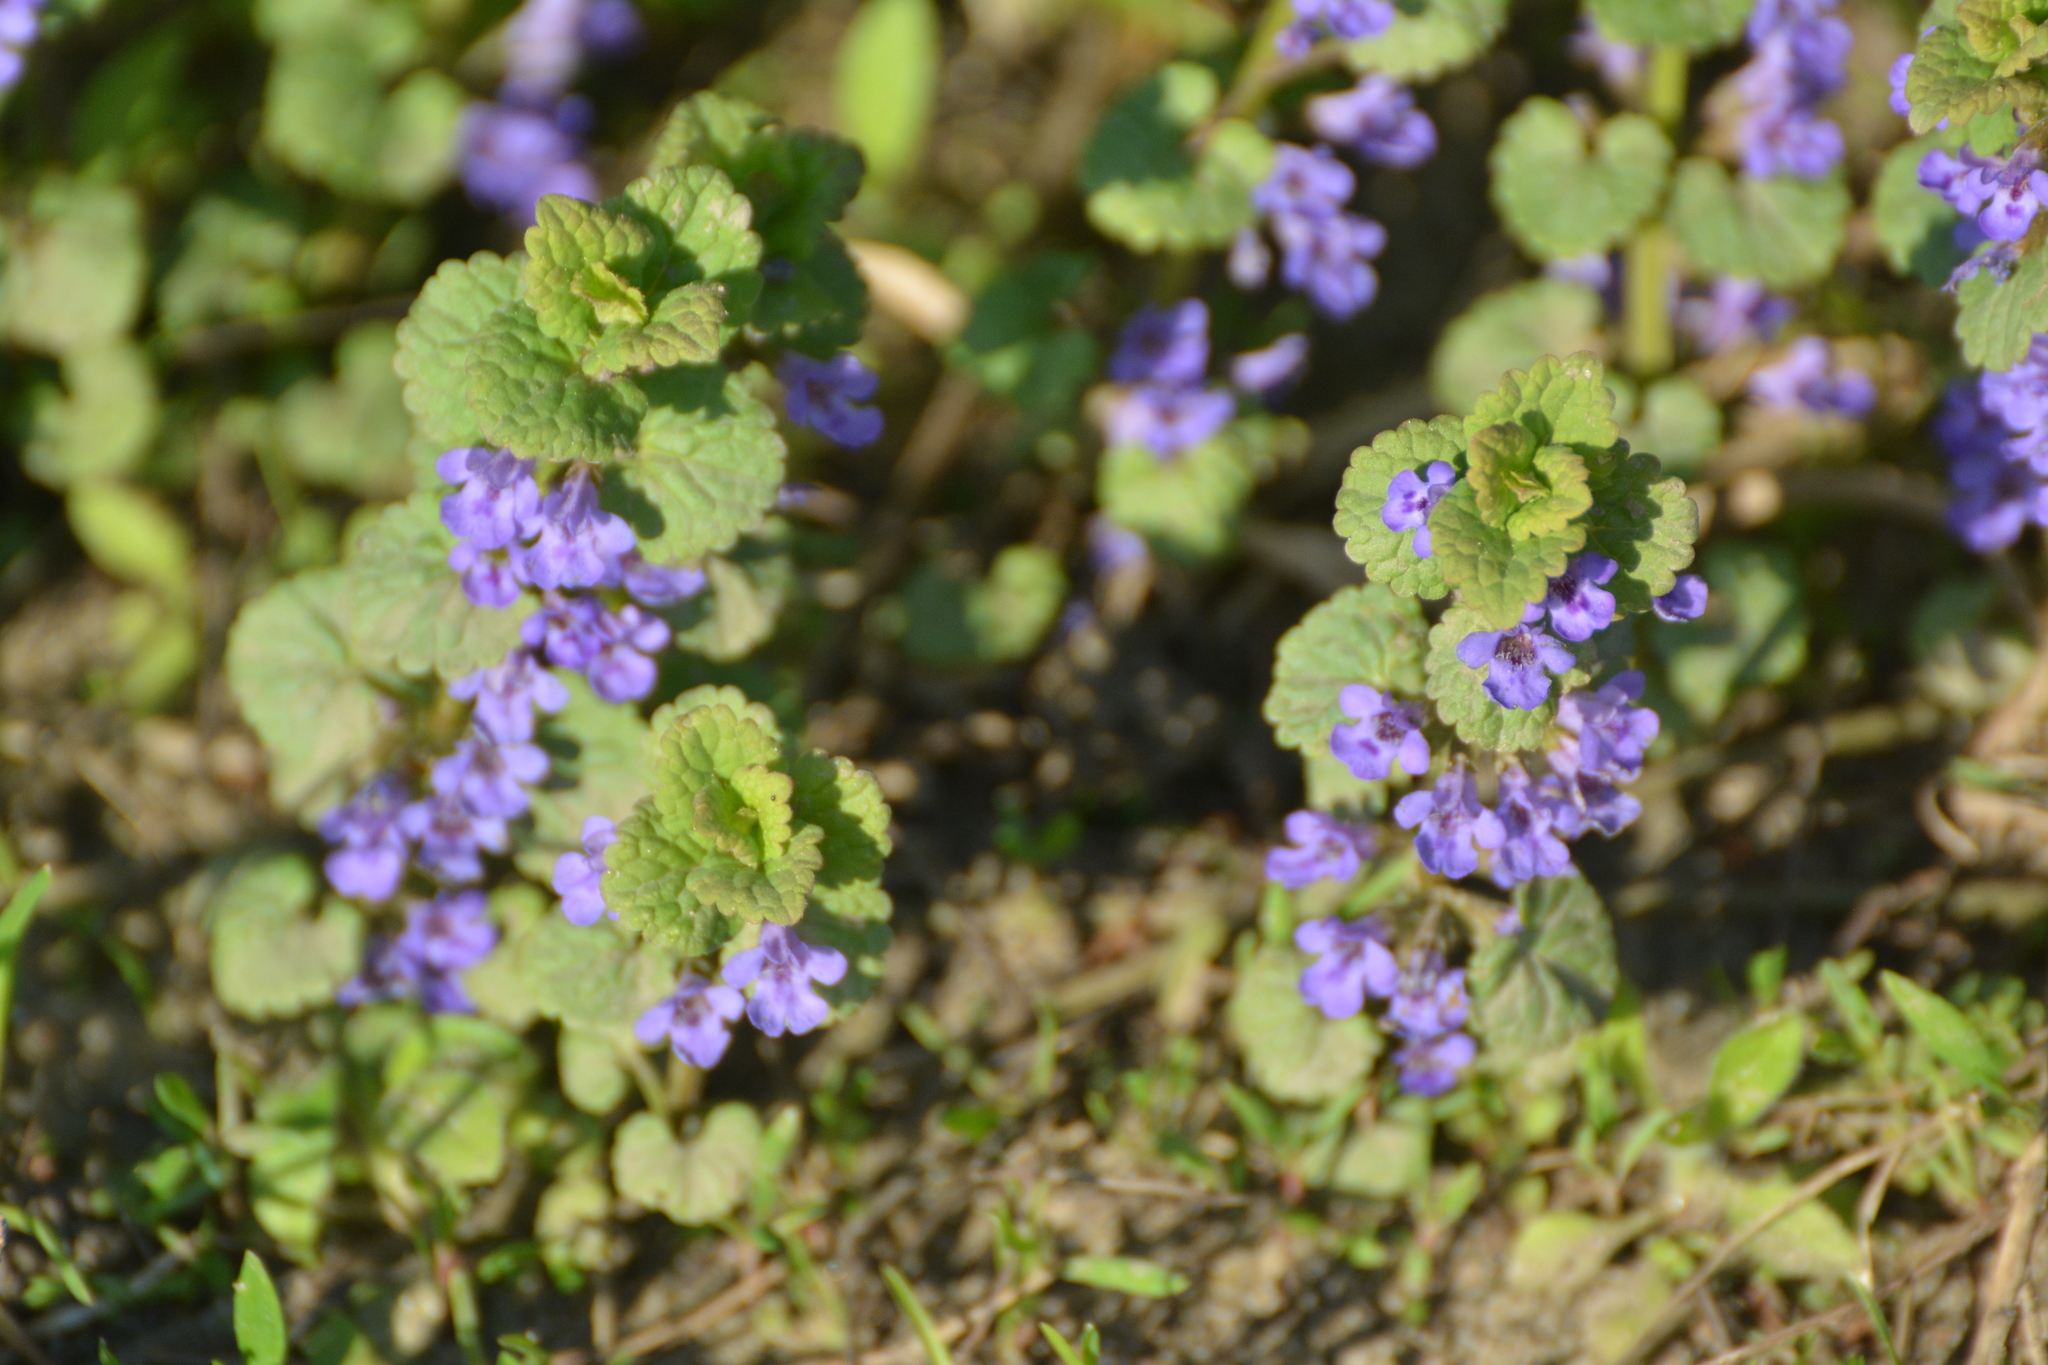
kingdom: Plantae
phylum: Tracheophyta
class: Magnoliopsida
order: Lamiales
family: Lamiaceae
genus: Glechoma
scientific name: Glechoma hederacea
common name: Ground ivy
